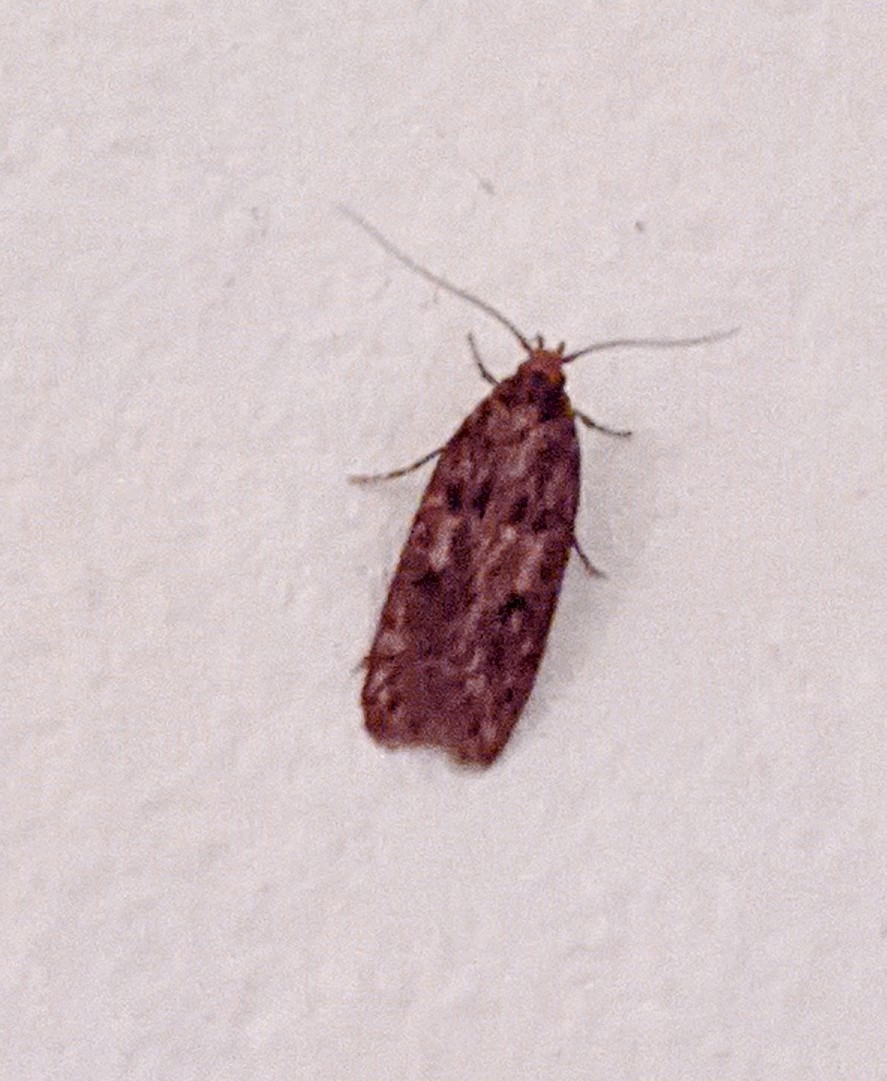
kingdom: Animalia
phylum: Arthropoda
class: Insecta
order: Lepidoptera
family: Oecophoridae
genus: Hofmannophila
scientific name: Hofmannophila pseudospretella
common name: Brown house moth
